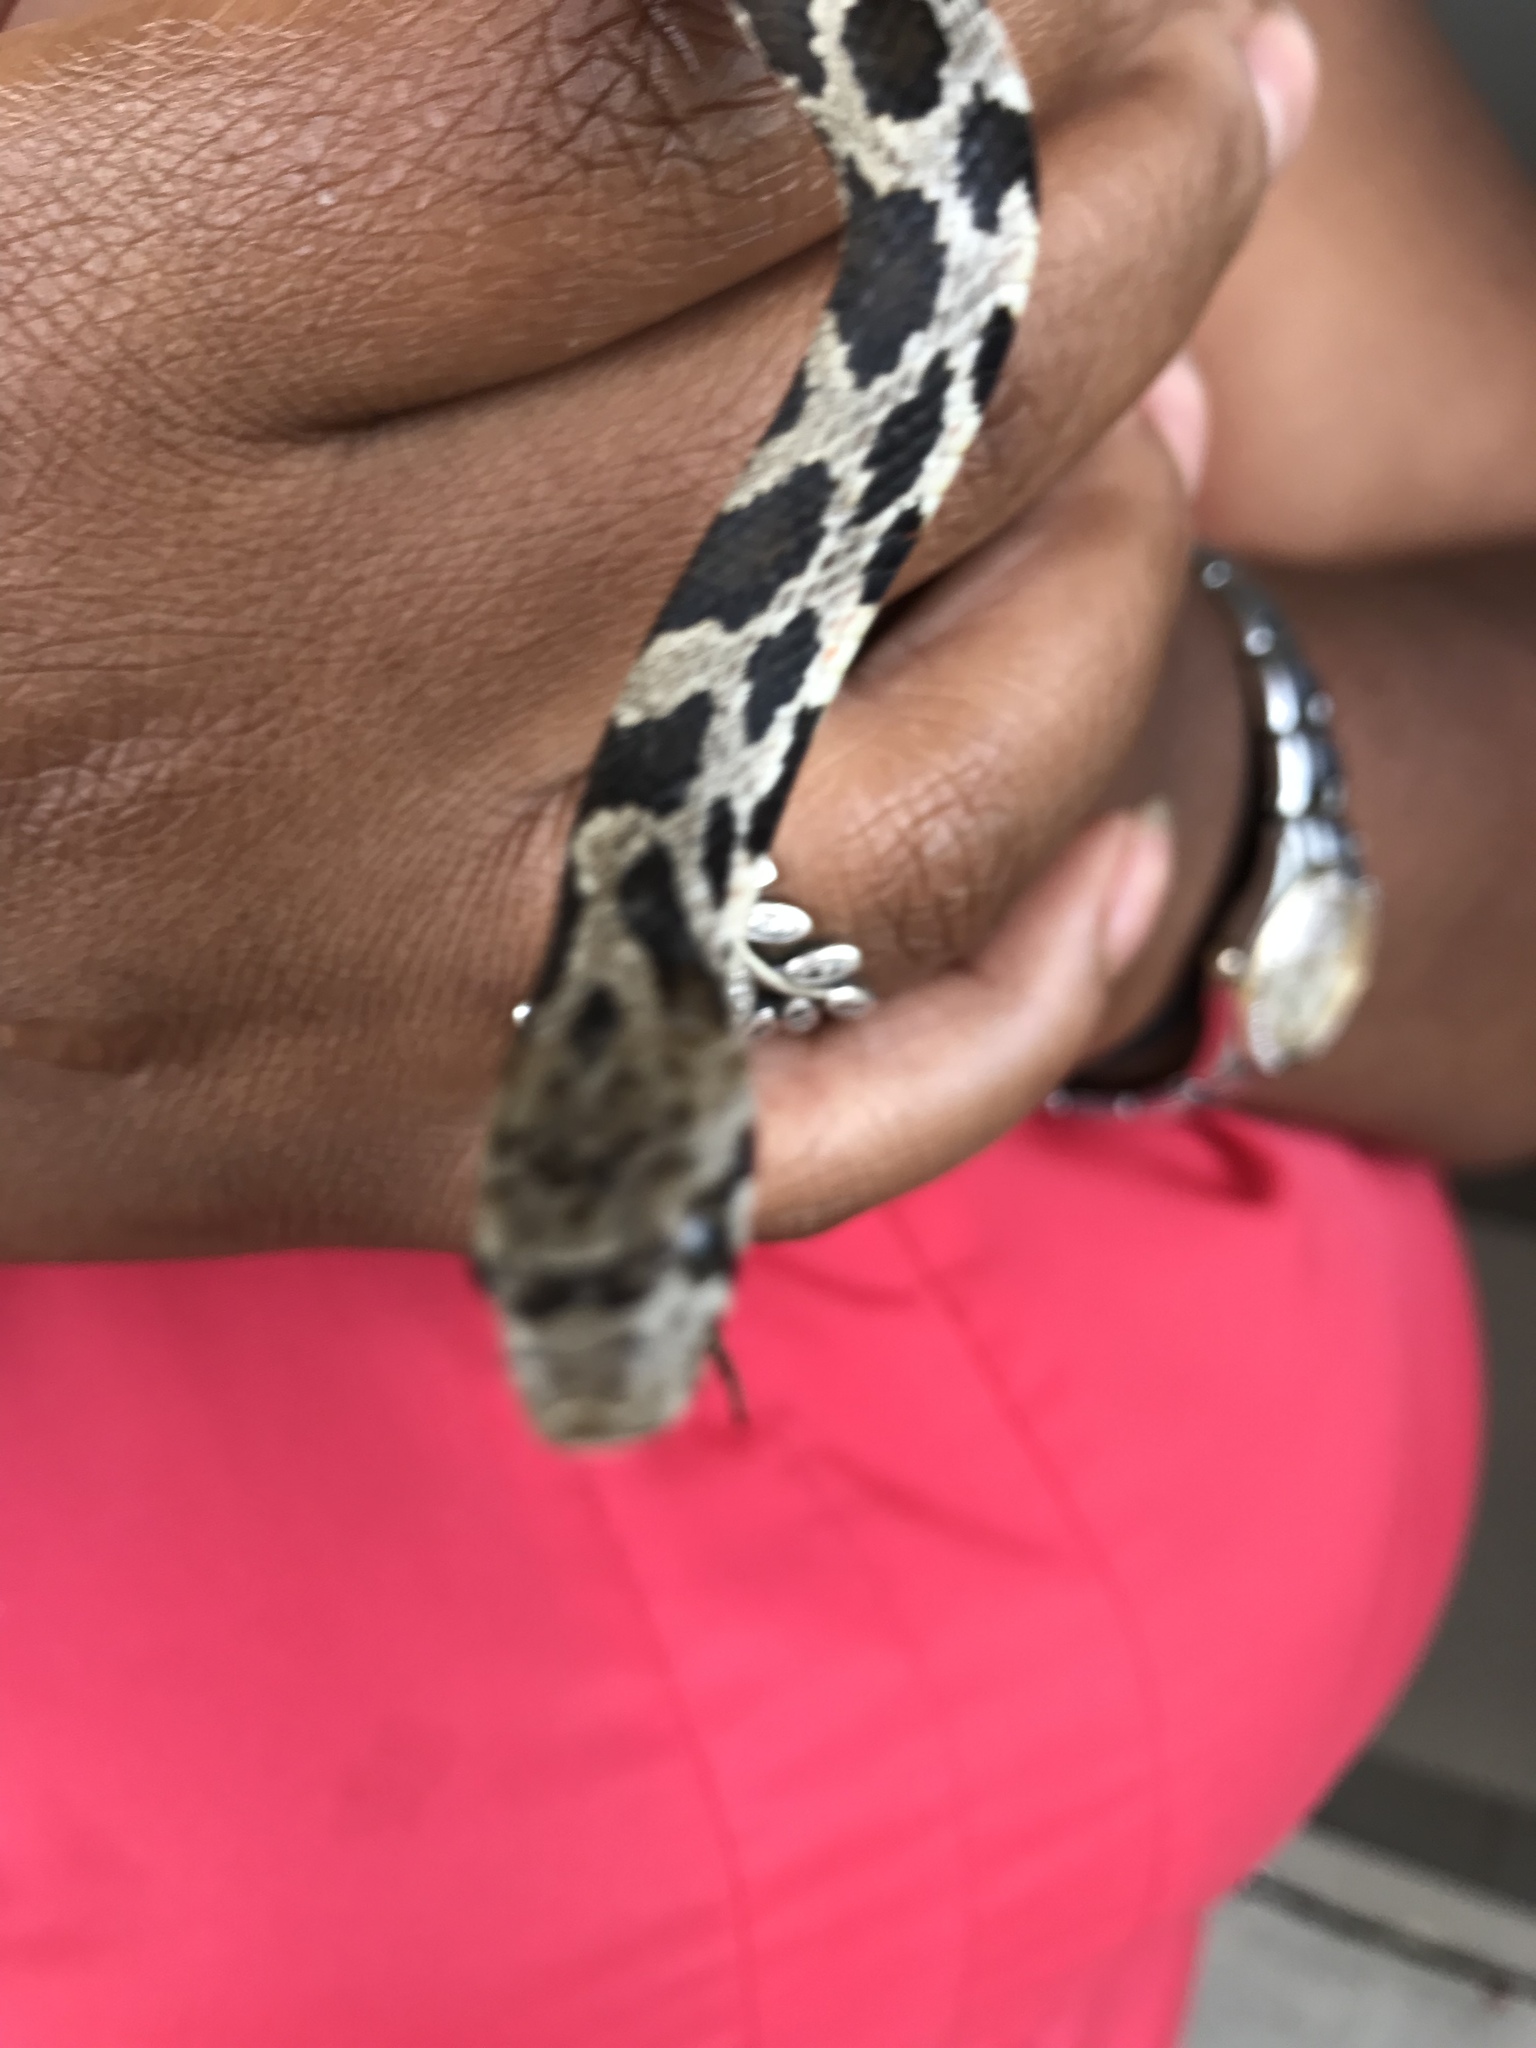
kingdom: Animalia
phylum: Chordata
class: Squamata
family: Colubridae
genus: Pantherophis
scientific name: Pantherophis vulpinus
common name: Eastern fox snake
